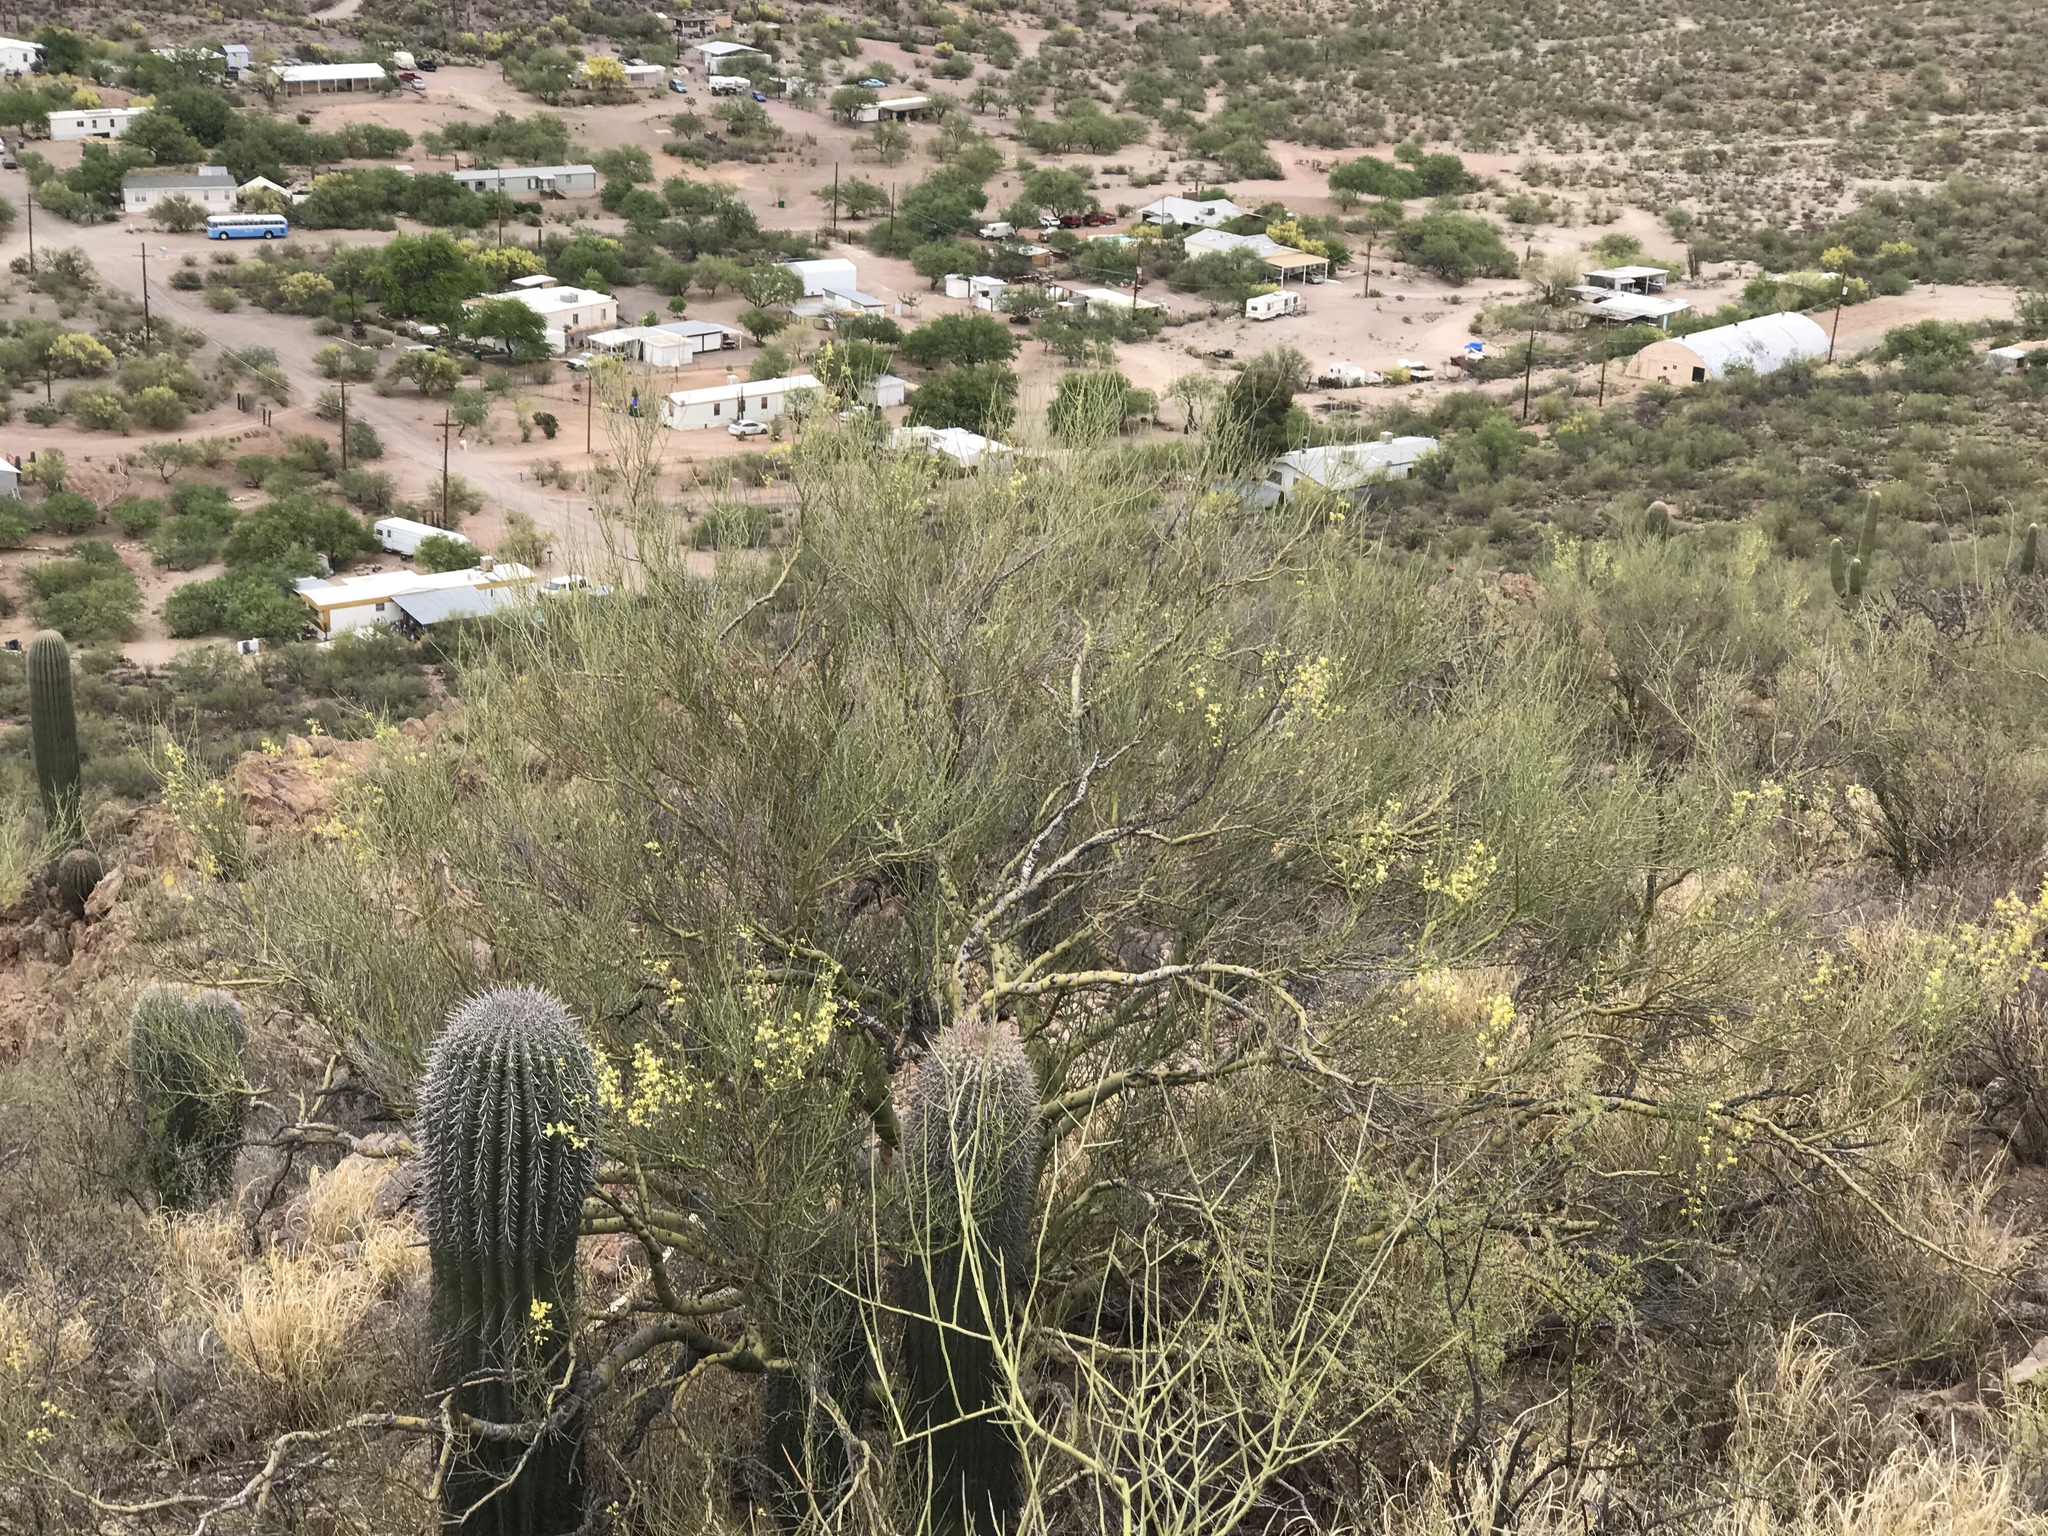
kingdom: Plantae
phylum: Tracheophyta
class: Magnoliopsida
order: Fabales
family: Fabaceae
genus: Parkinsonia
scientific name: Parkinsonia microphylla
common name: Yellow paloverde
